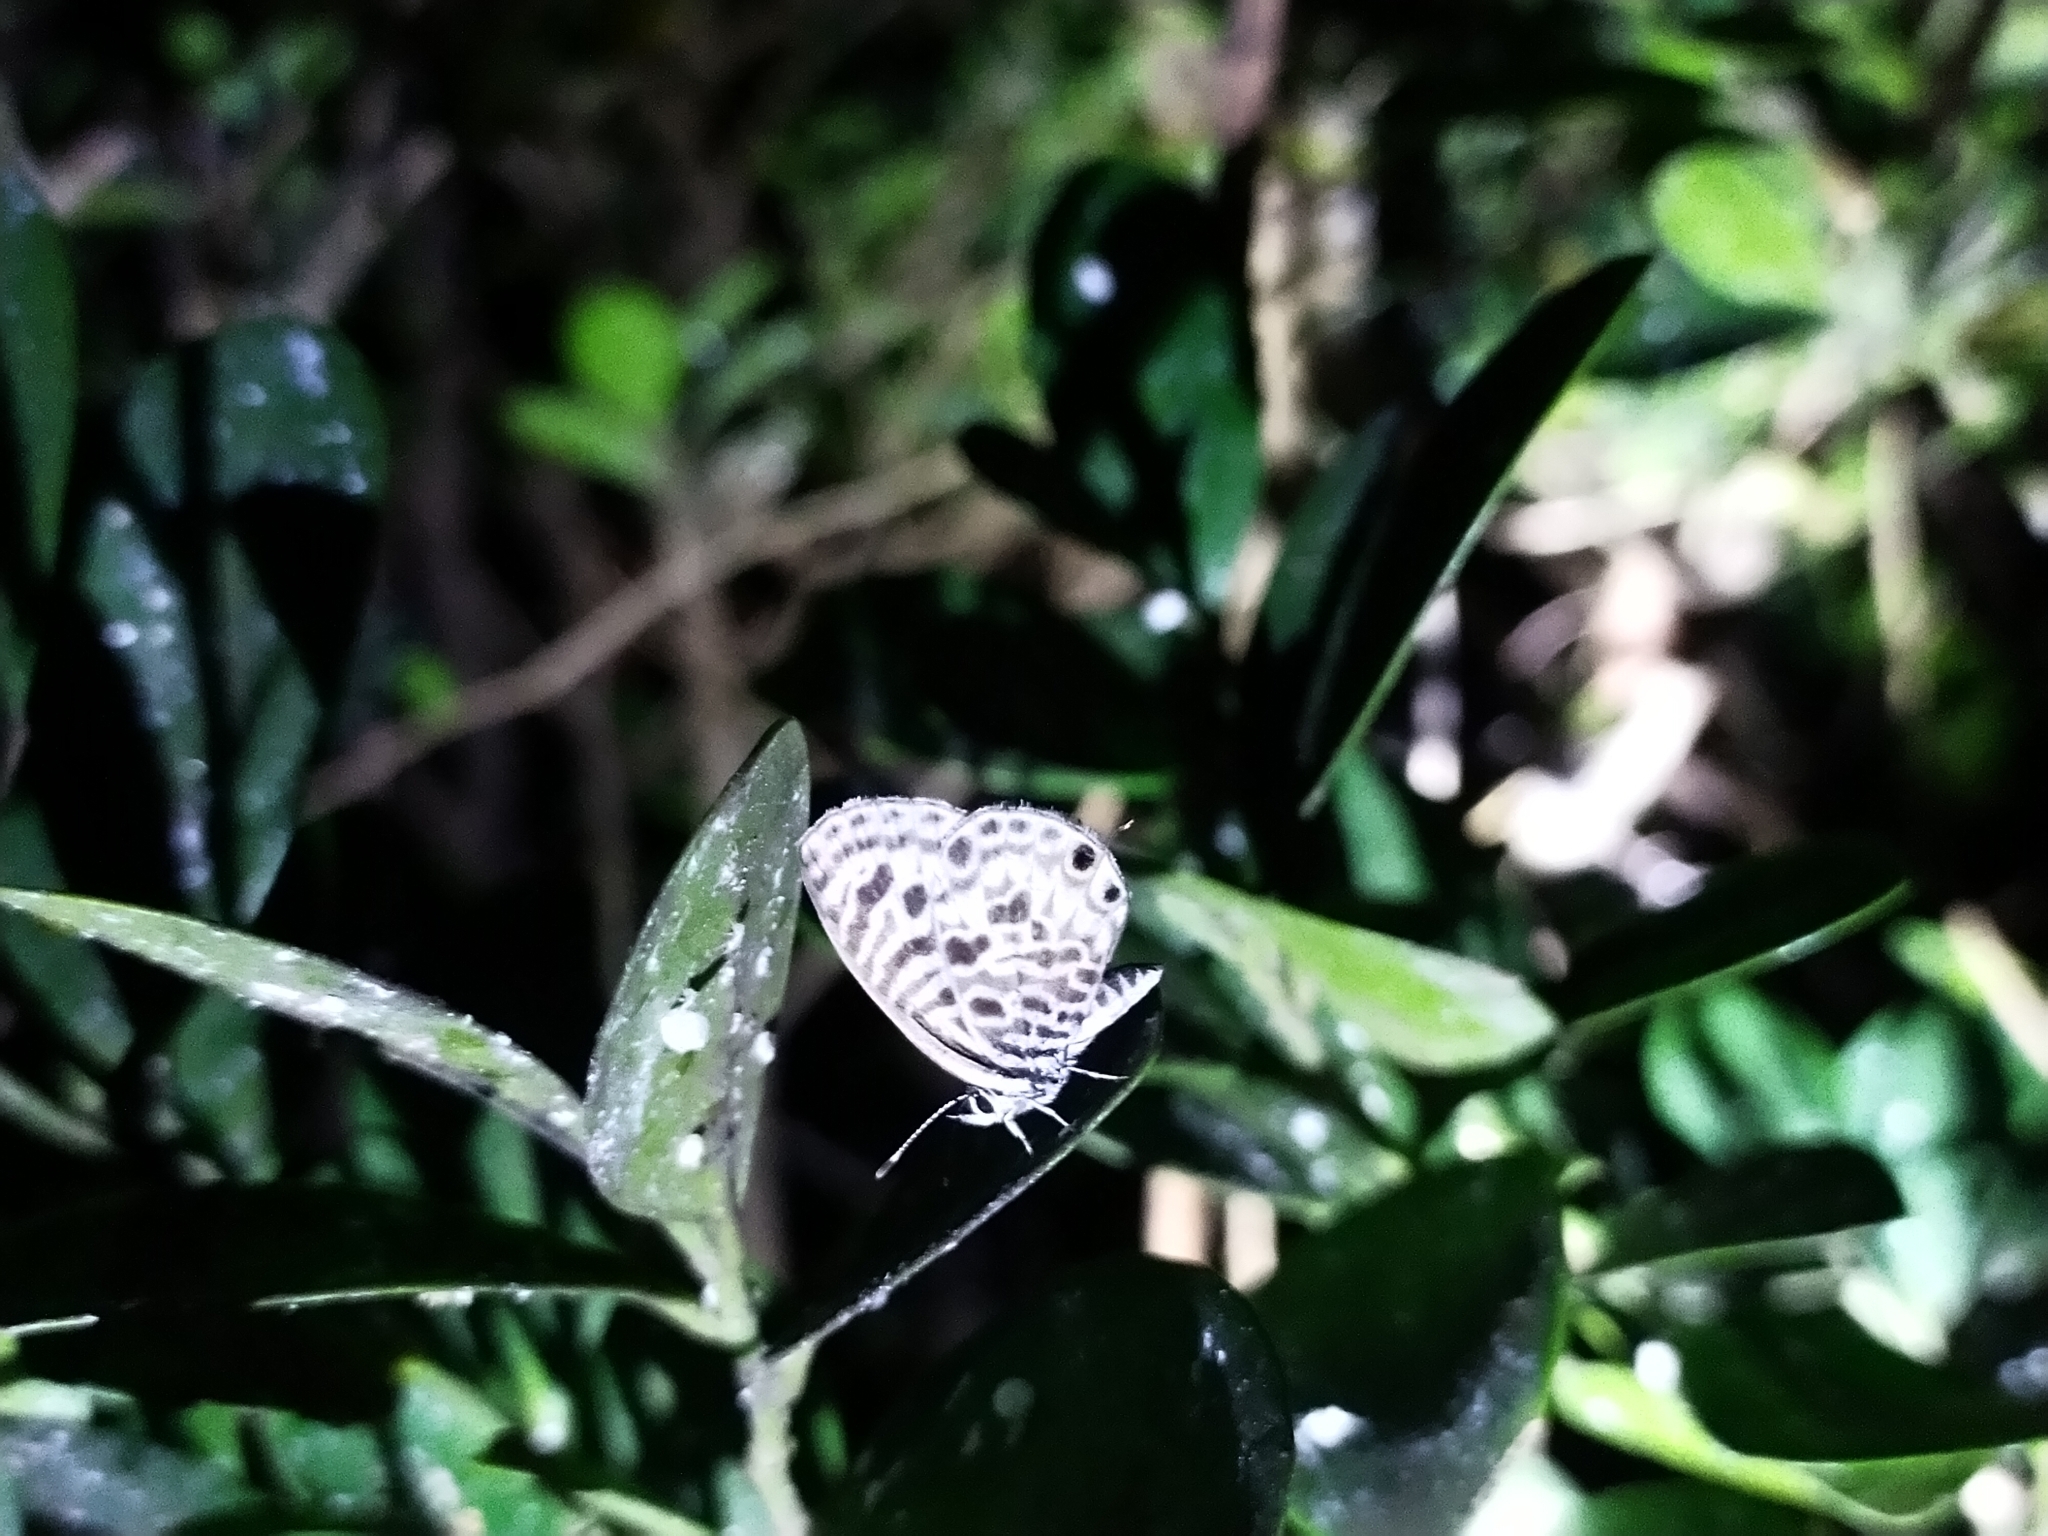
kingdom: Animalia
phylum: Arthropoda
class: Insecta
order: Lepidoptera
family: Lycaenidae
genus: Leptotes
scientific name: Leptotes plinius
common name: Zebra blue
